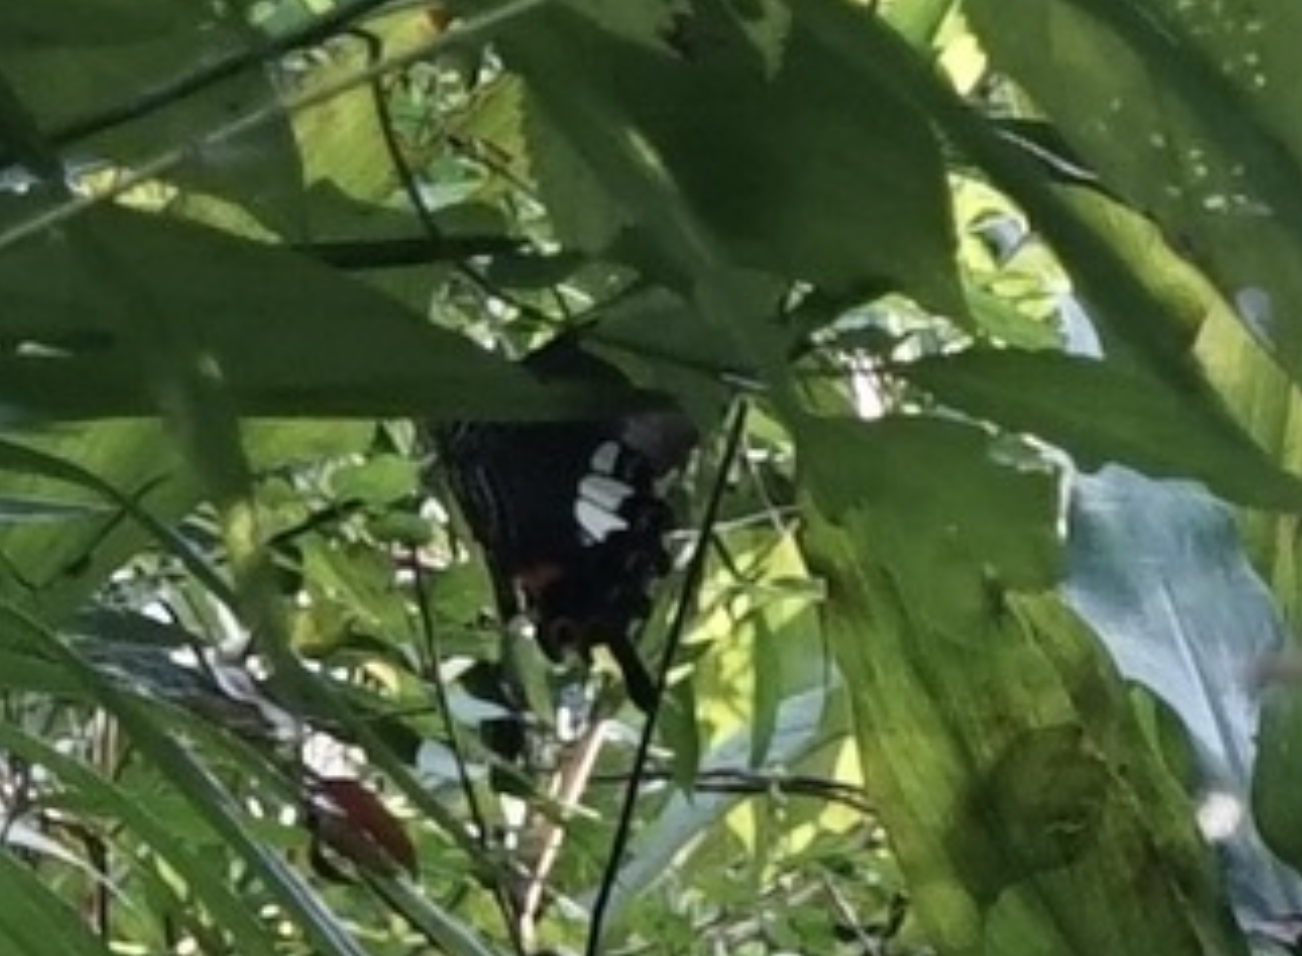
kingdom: Animalia
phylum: Arthropoda
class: Insecta
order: Lepidoptera
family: Papilionidae
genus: Papilio
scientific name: Papilio helenus
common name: Red helen
